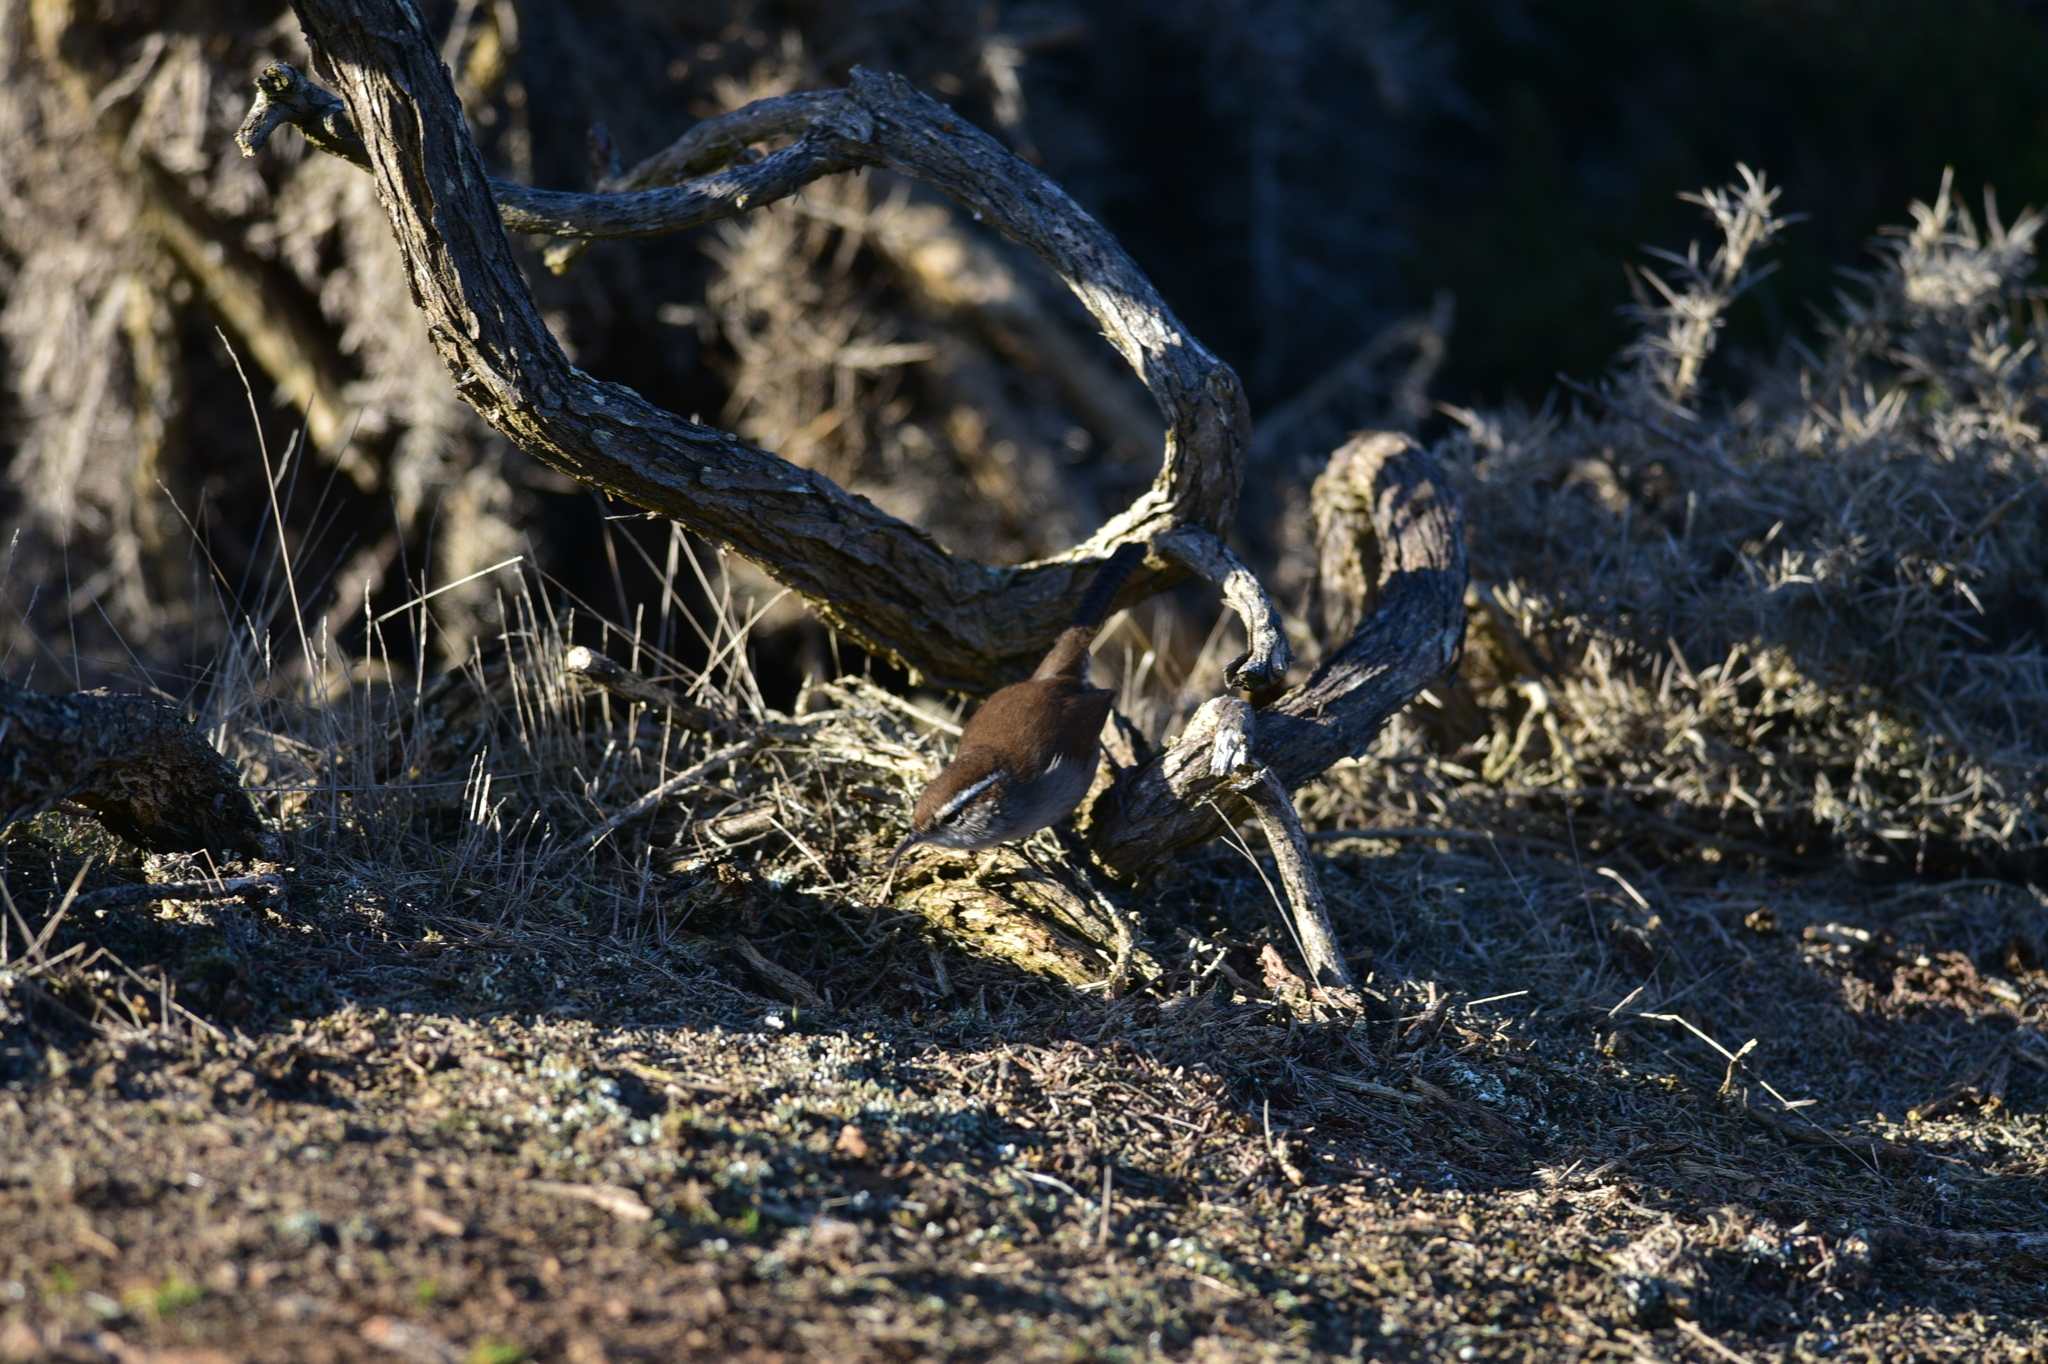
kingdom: Animalia
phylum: Chordata
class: Aves
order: Passeriformes
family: Troglodytidae
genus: Thryomanes
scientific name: Thryomanes bewickii
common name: Bewick's wren
